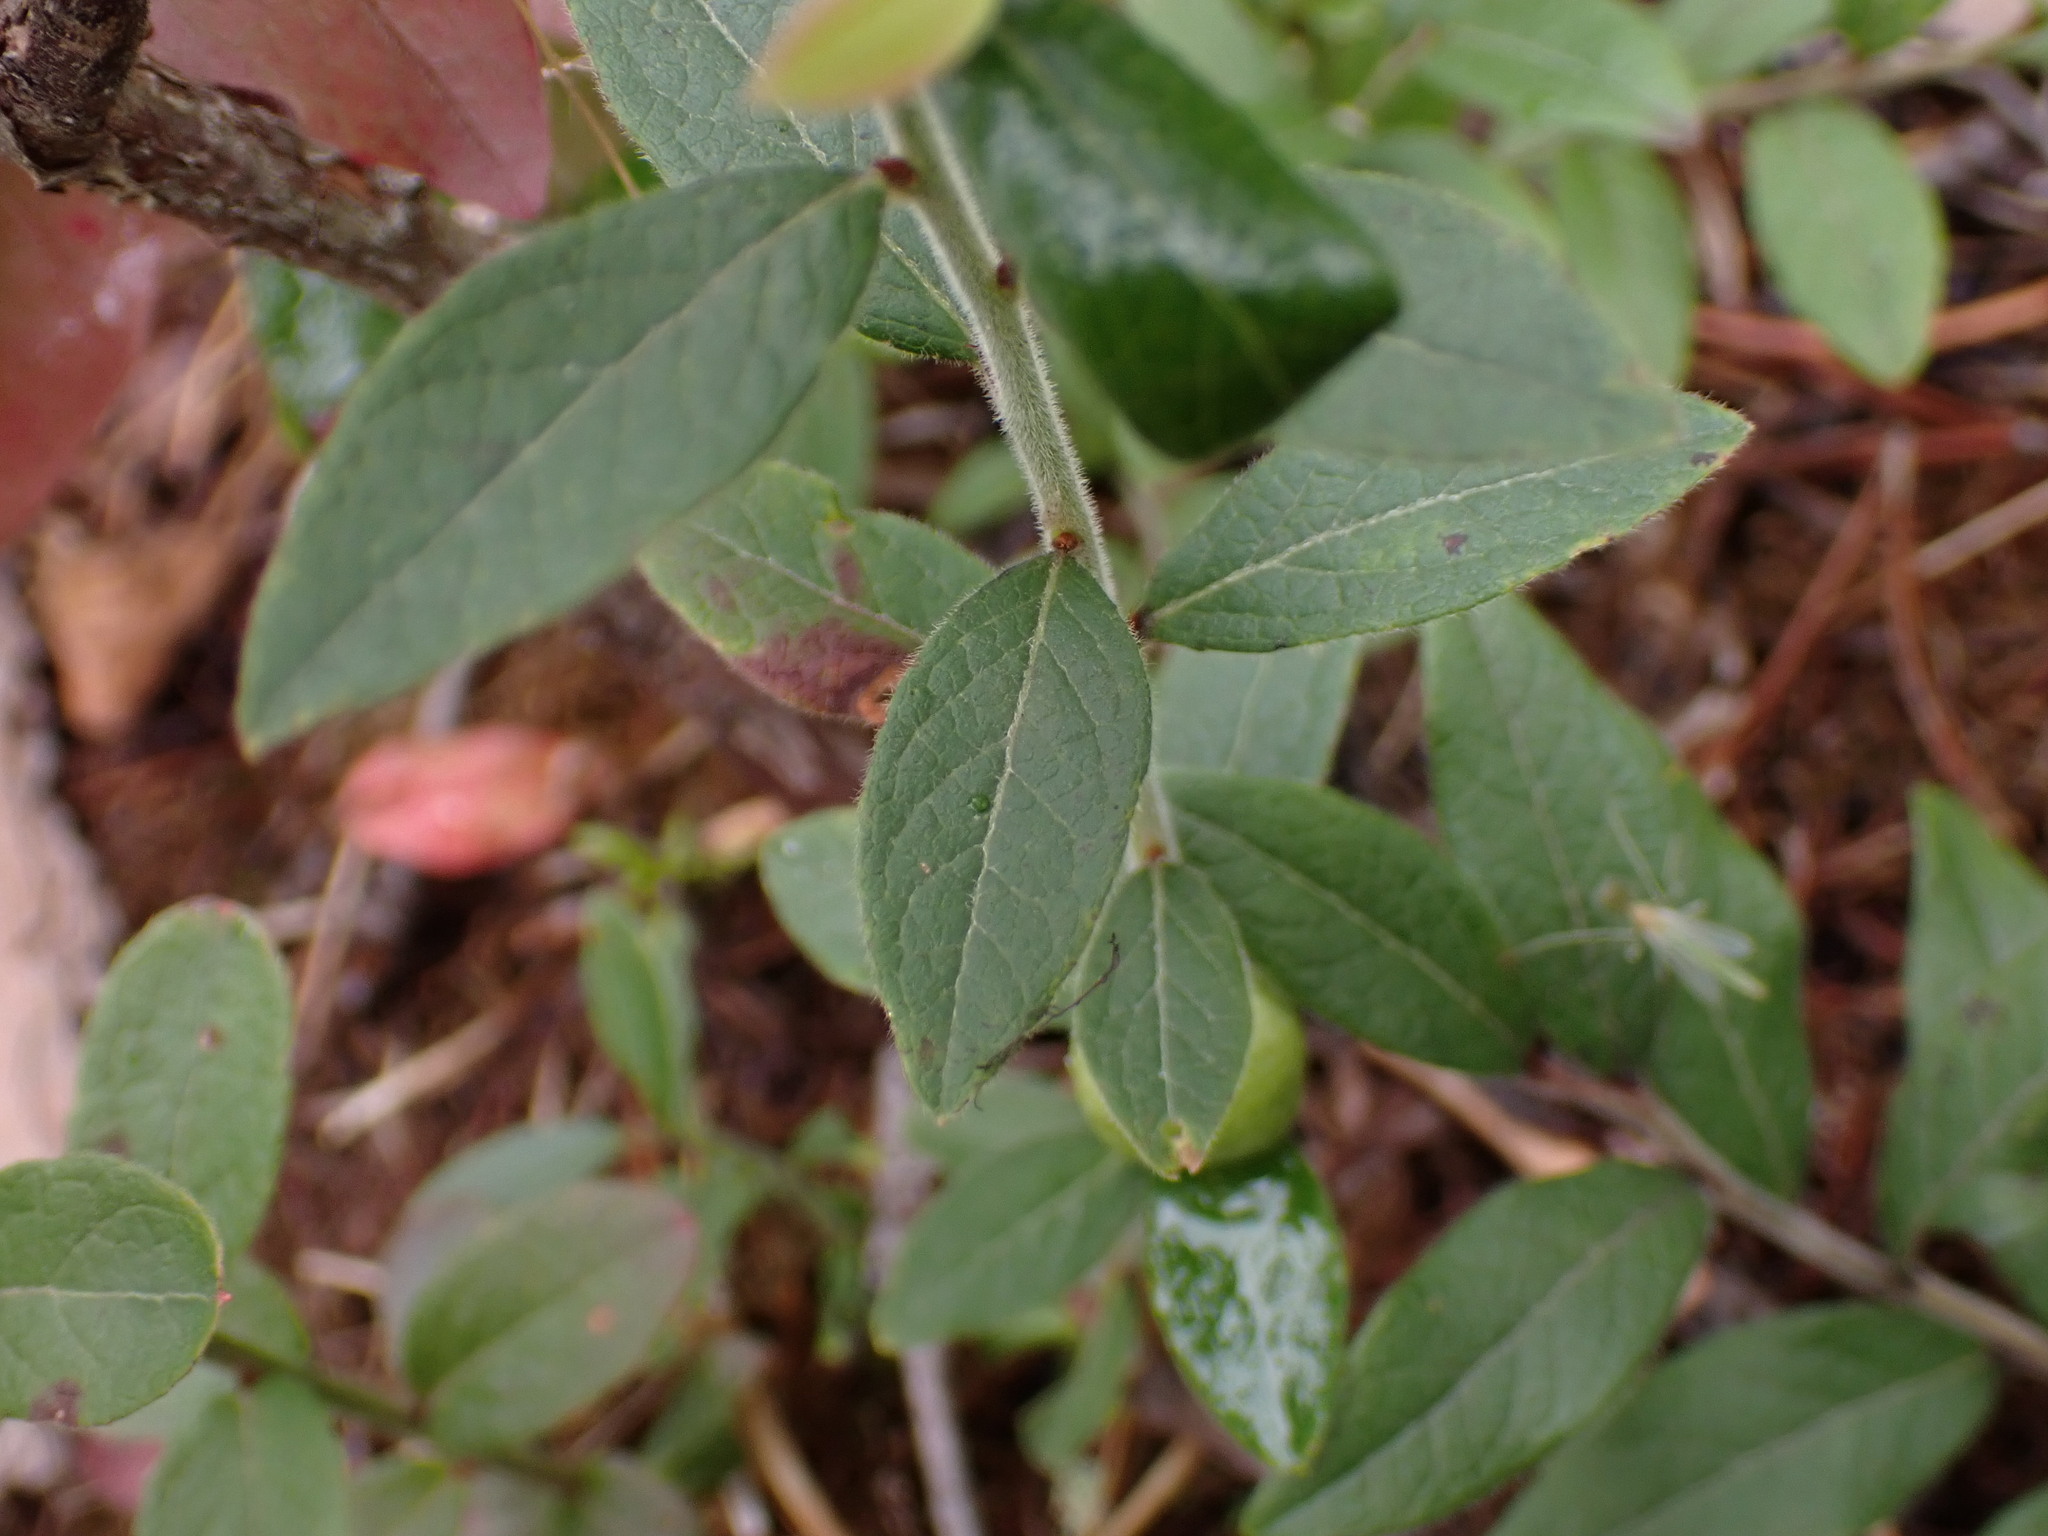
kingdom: Plantae
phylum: Tracheophyta
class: Magnoliopsida
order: Ericales
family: Ericaceae
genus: Vaccinium
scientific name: Vaccinium myrtilloides
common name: Canada blueberry
